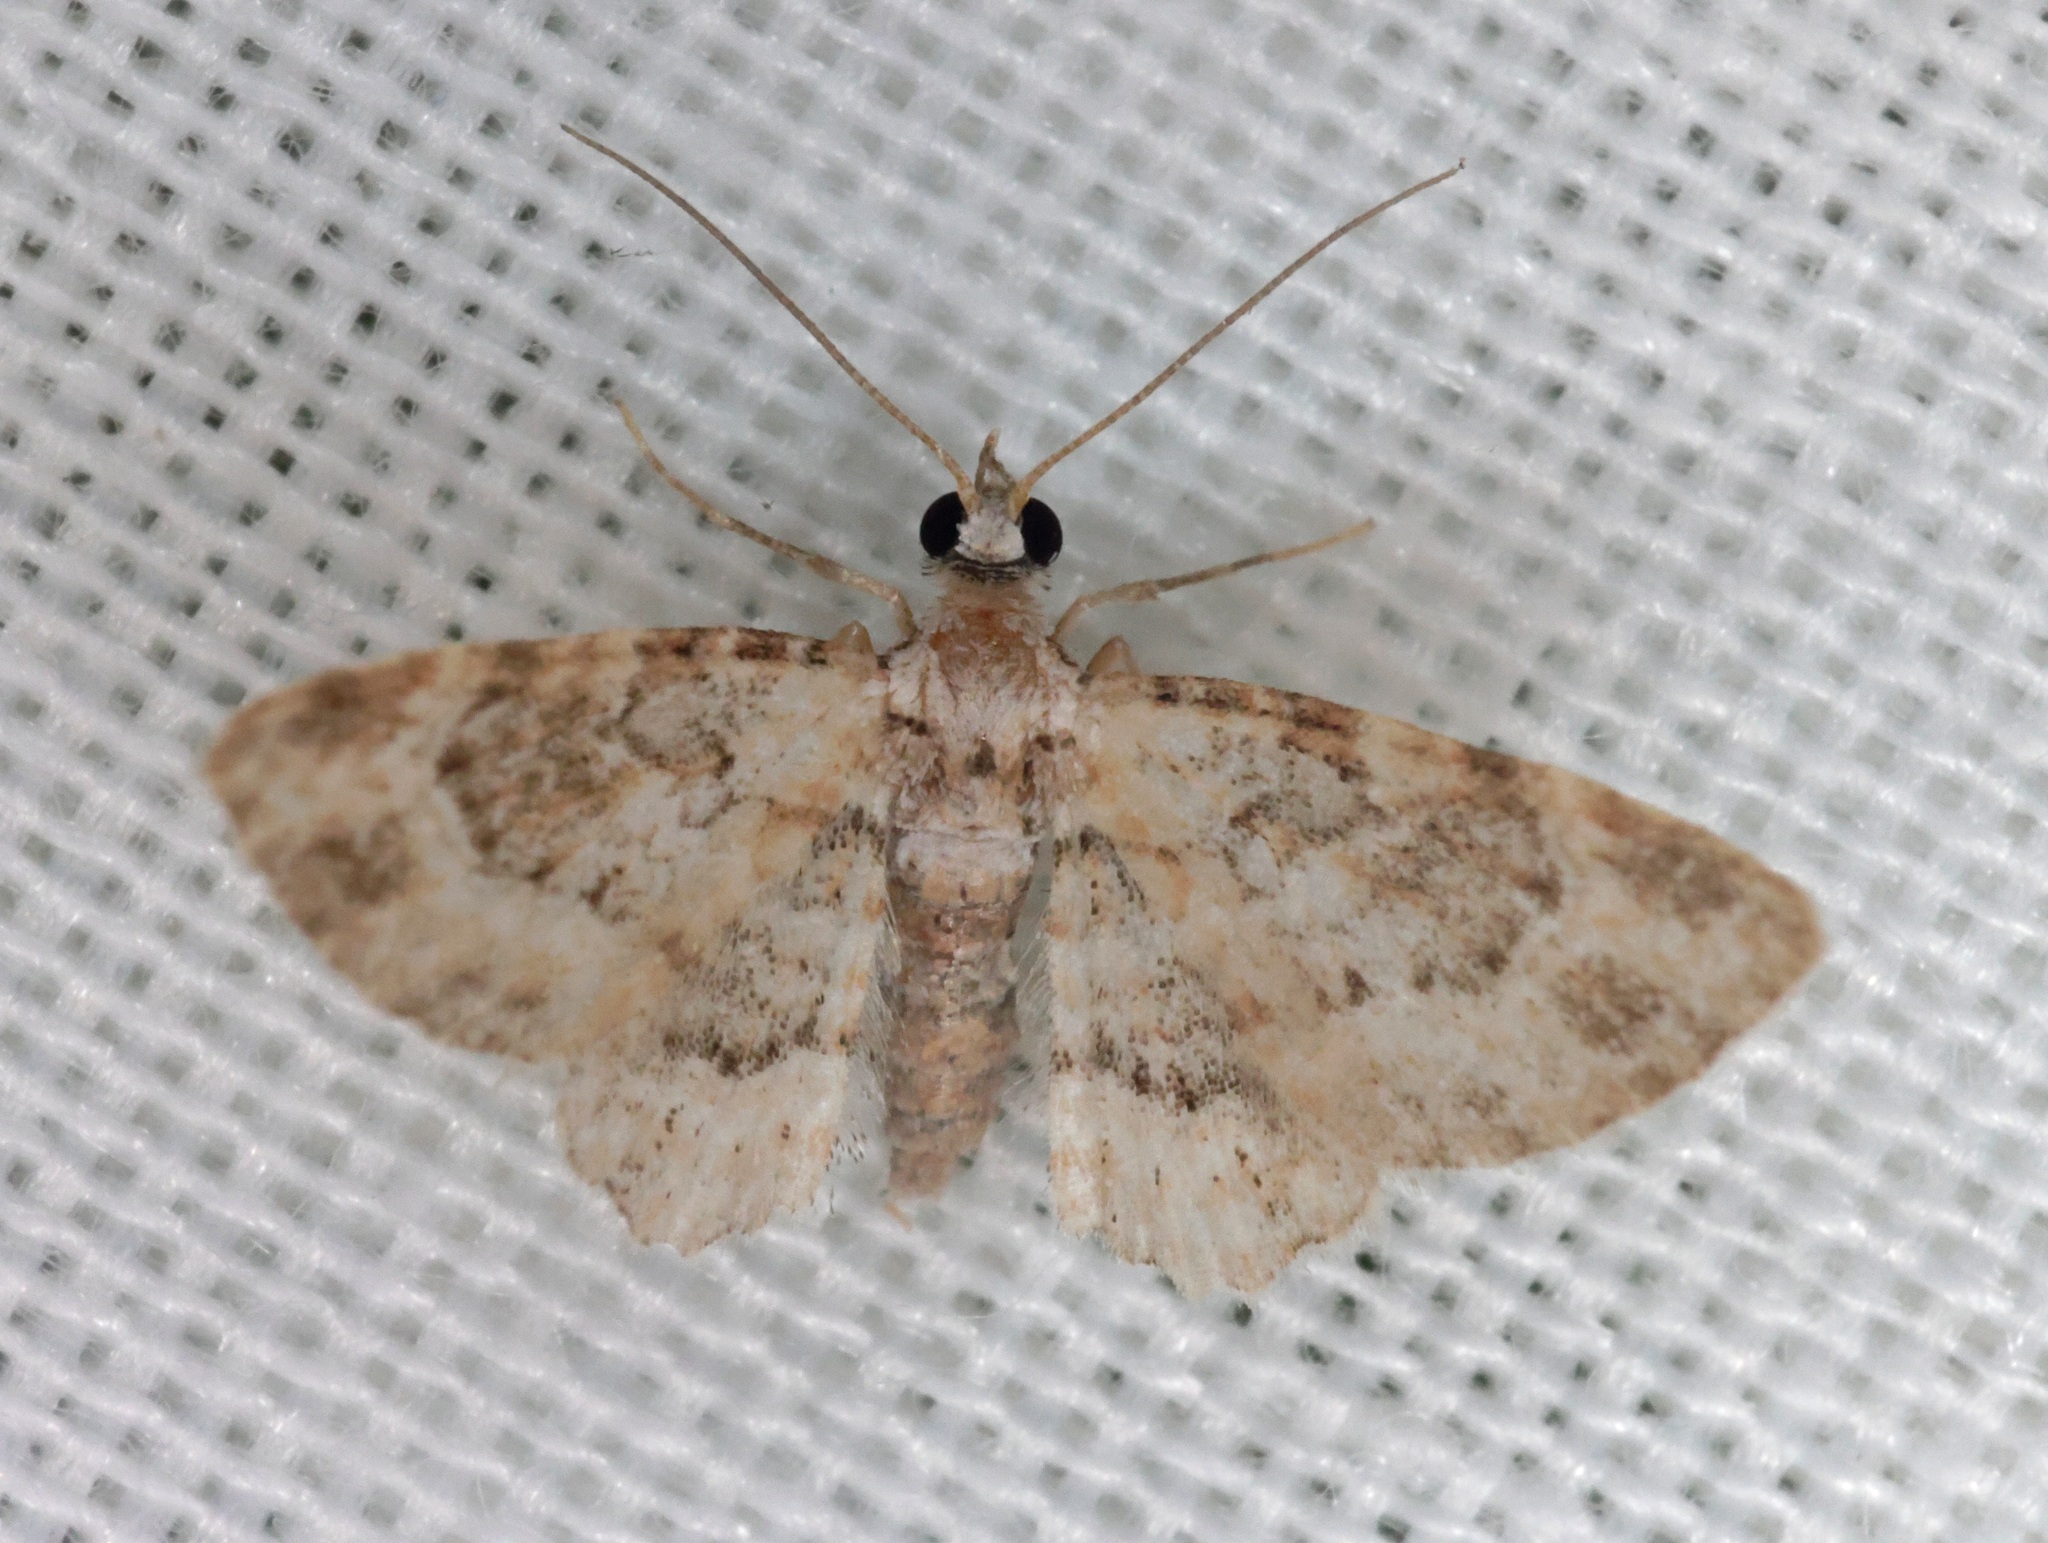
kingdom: Animalia
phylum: Arthropoda
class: Insecta
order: Lepidoptera
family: Geometridae
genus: Gymnoscelis
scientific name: Gymnoscelis subpumilata
